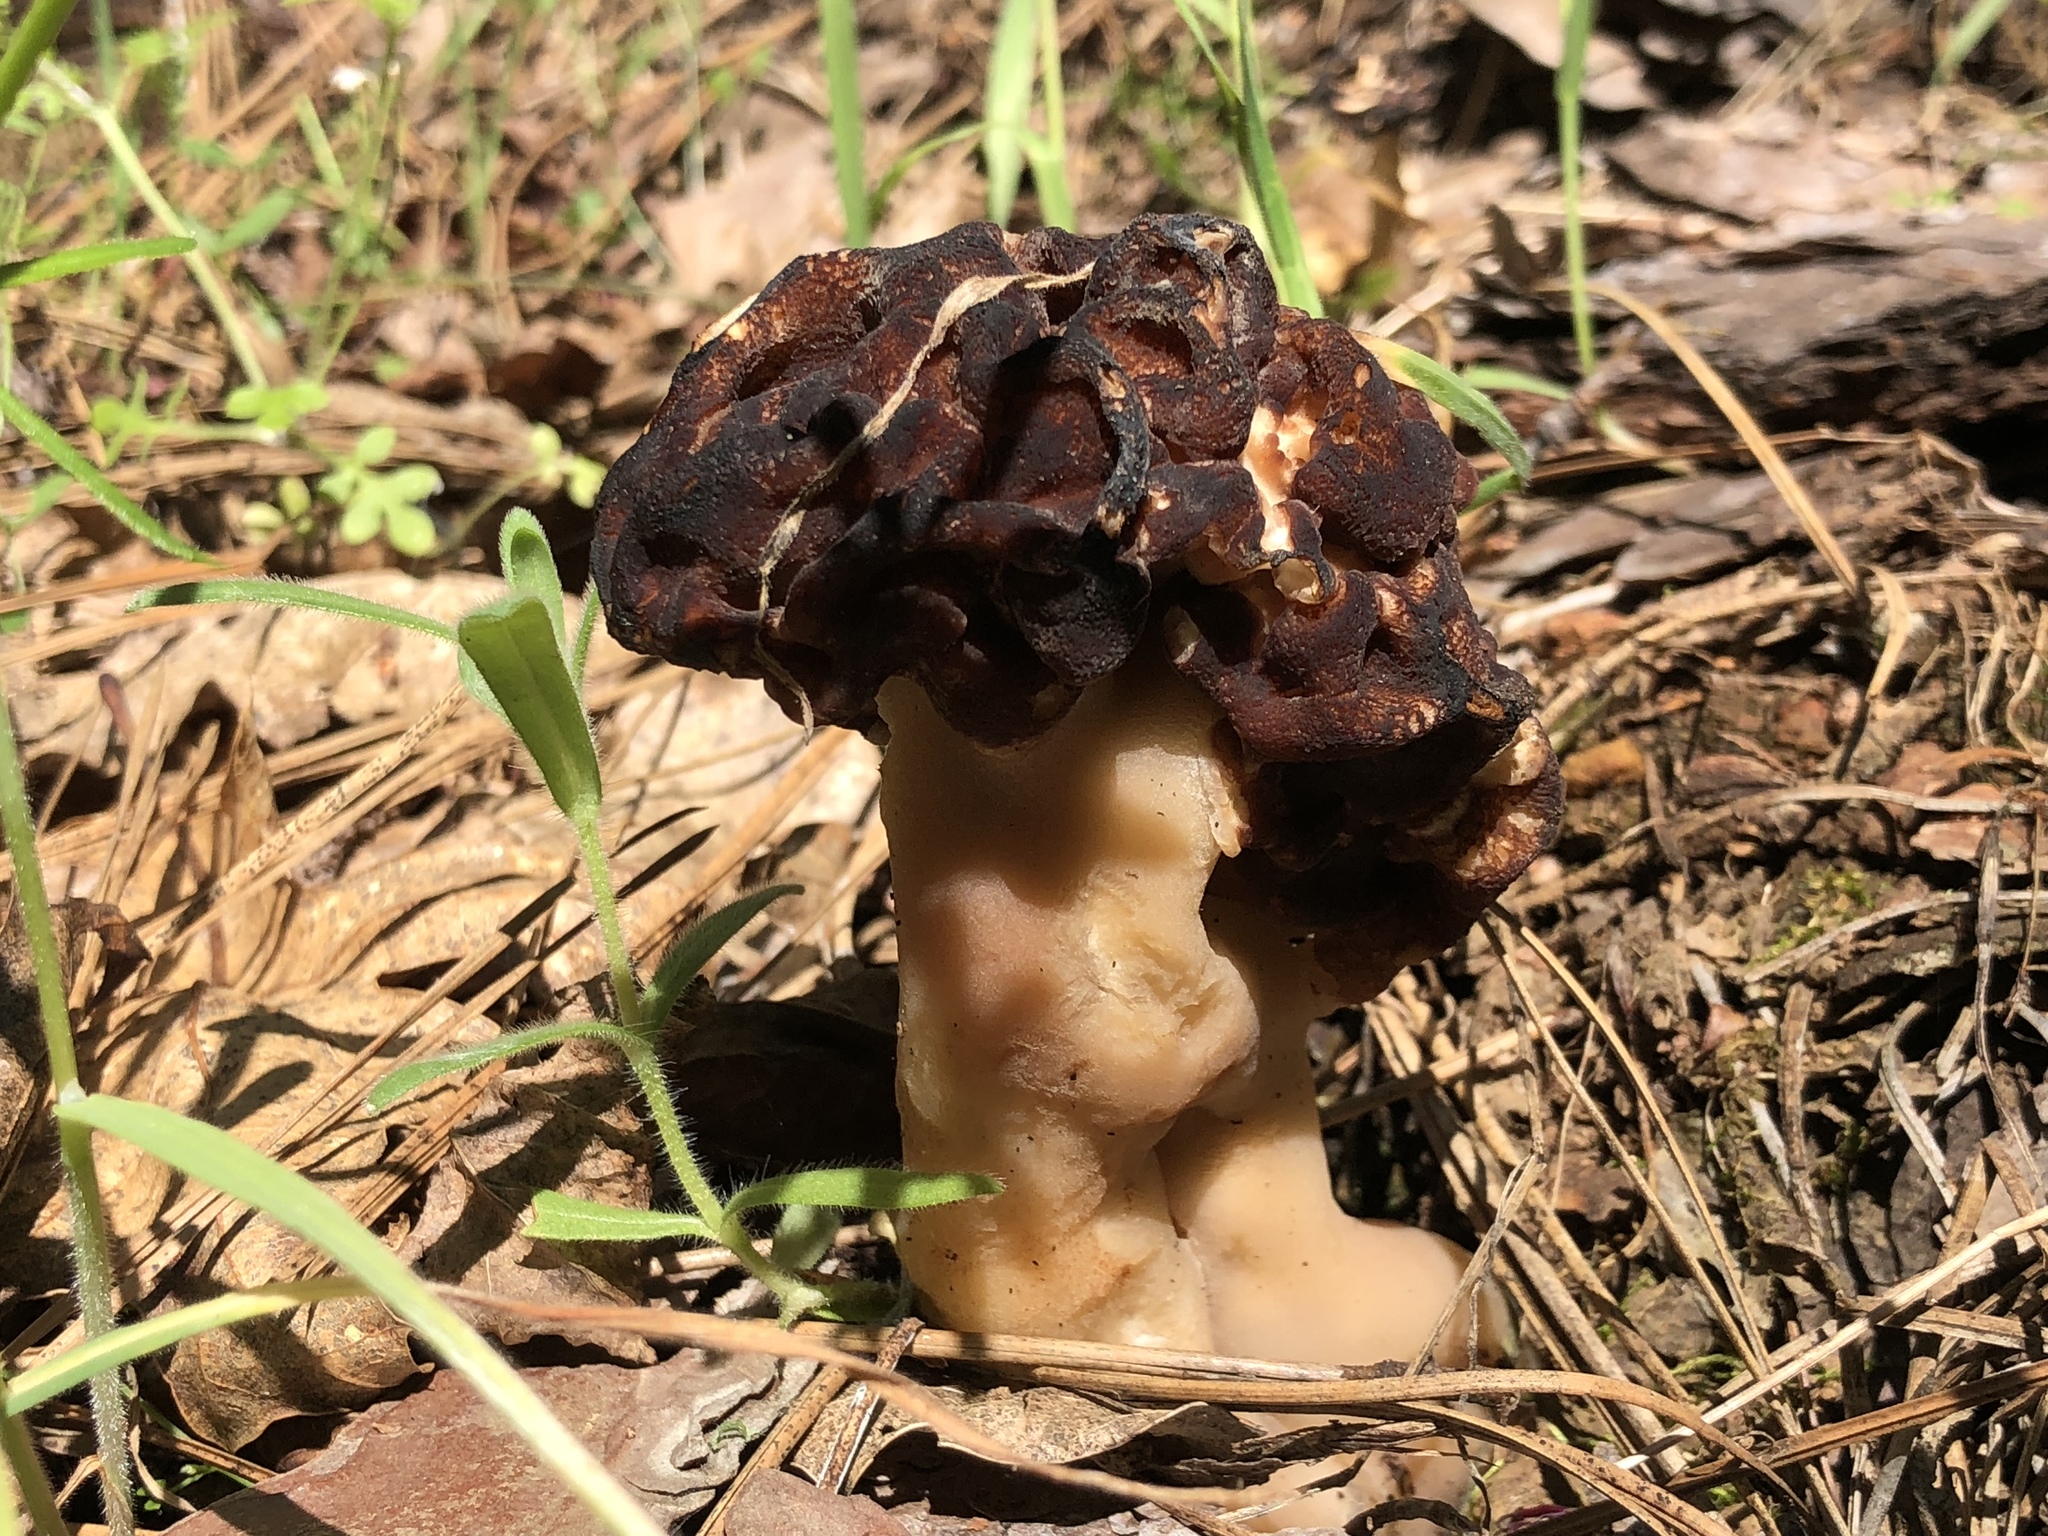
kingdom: Fungi
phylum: Ascomycota
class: Pezizomycetes
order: Pezizales
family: Discinaceae
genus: Gyromitra
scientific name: Gyromitra esculenta
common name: False morel
